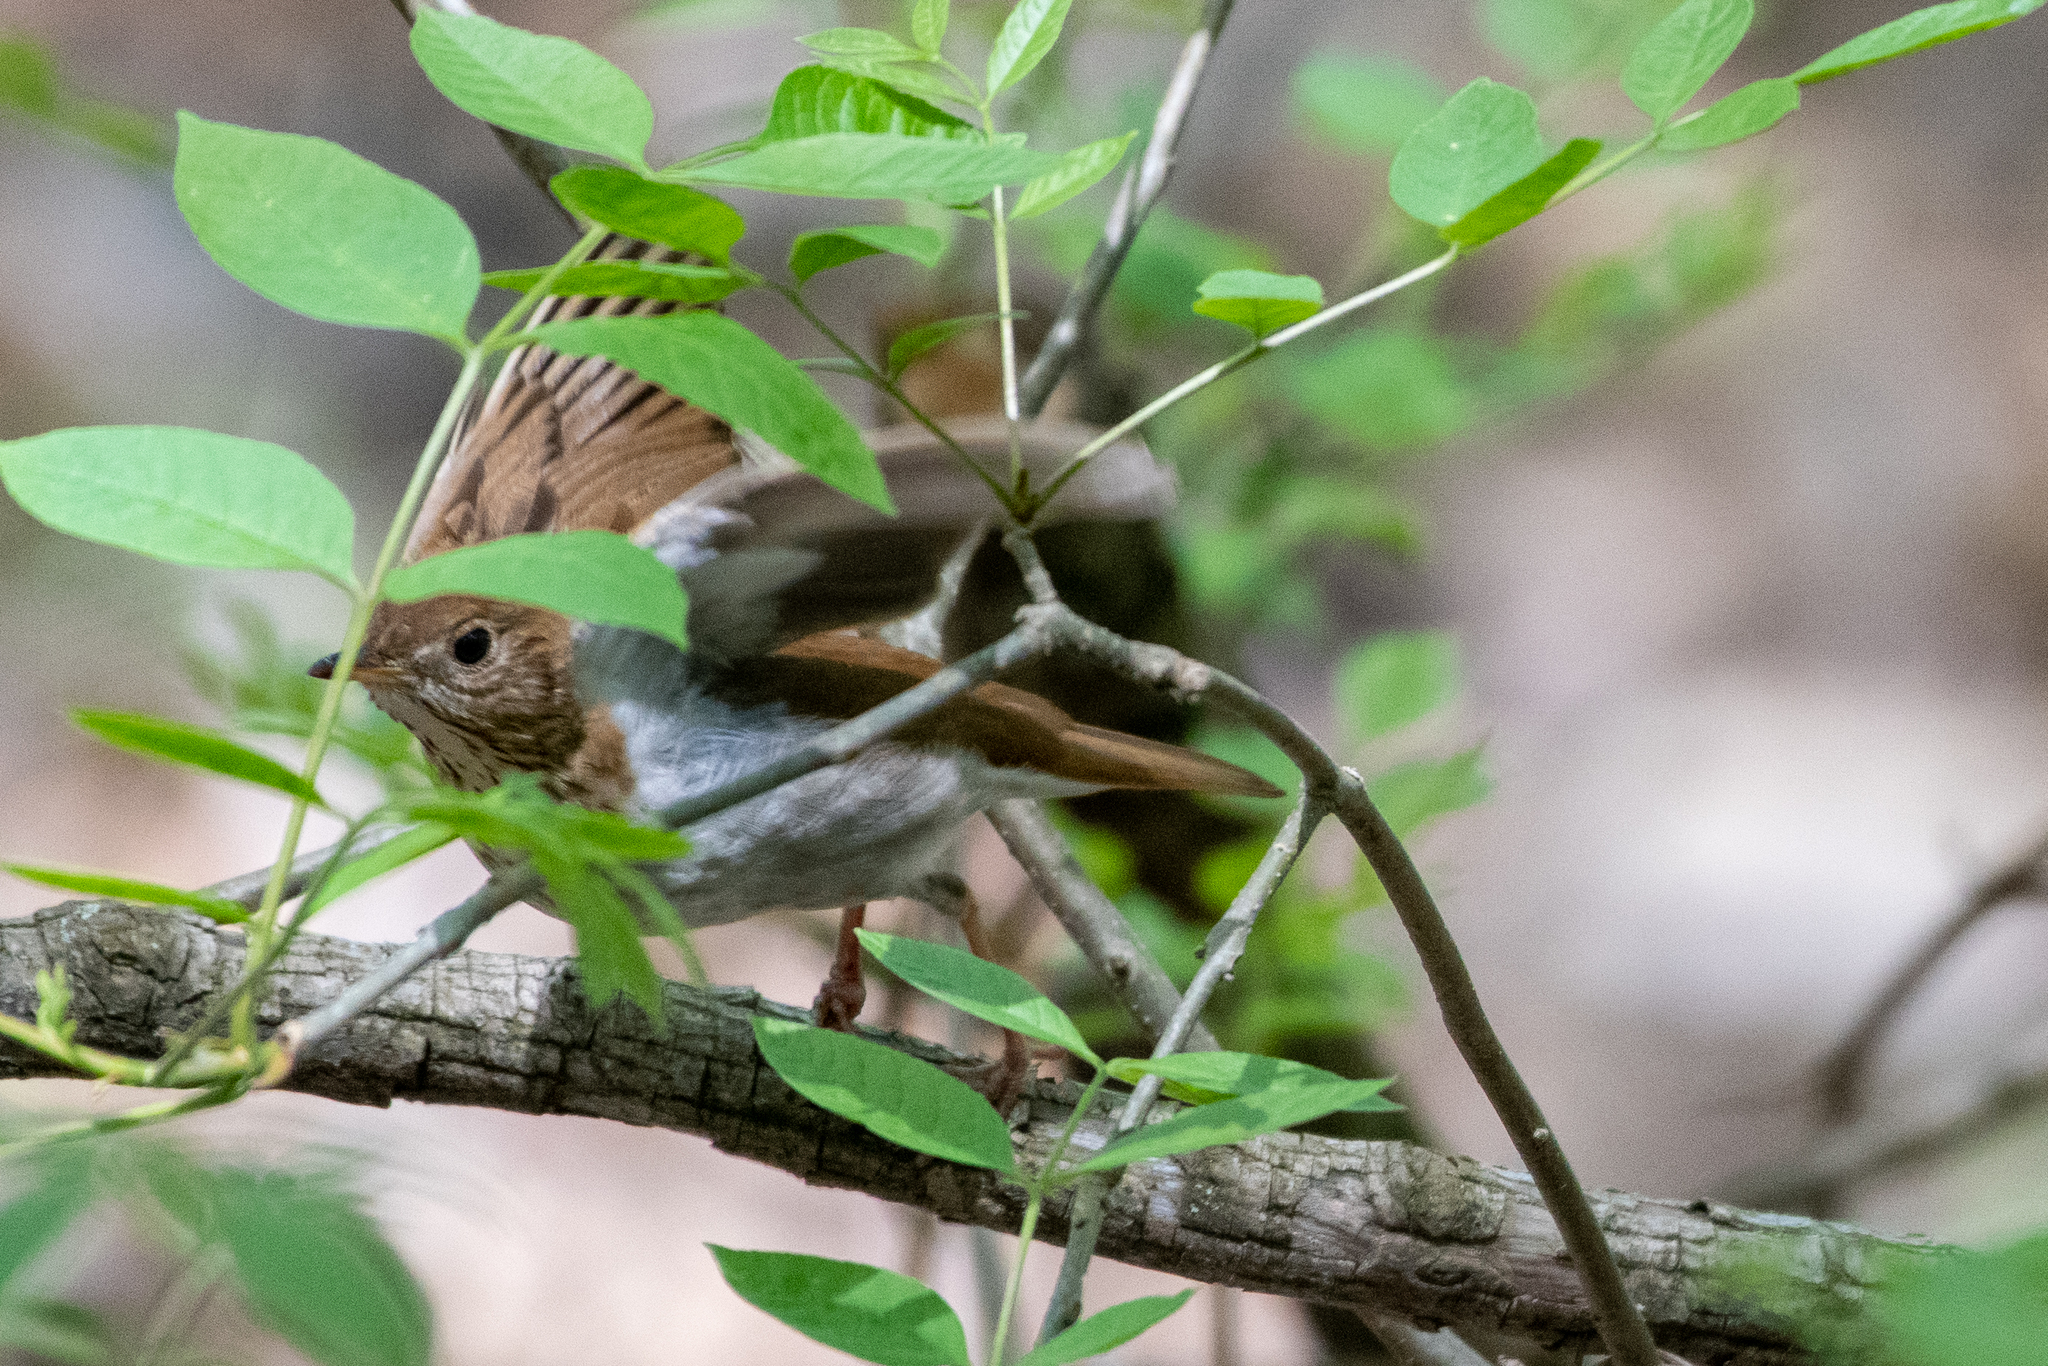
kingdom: Animalia
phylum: Chordata
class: Aves
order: Passeriformes
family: Turdidae
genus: Catharus
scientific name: Catharus fuscescens
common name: Veery
